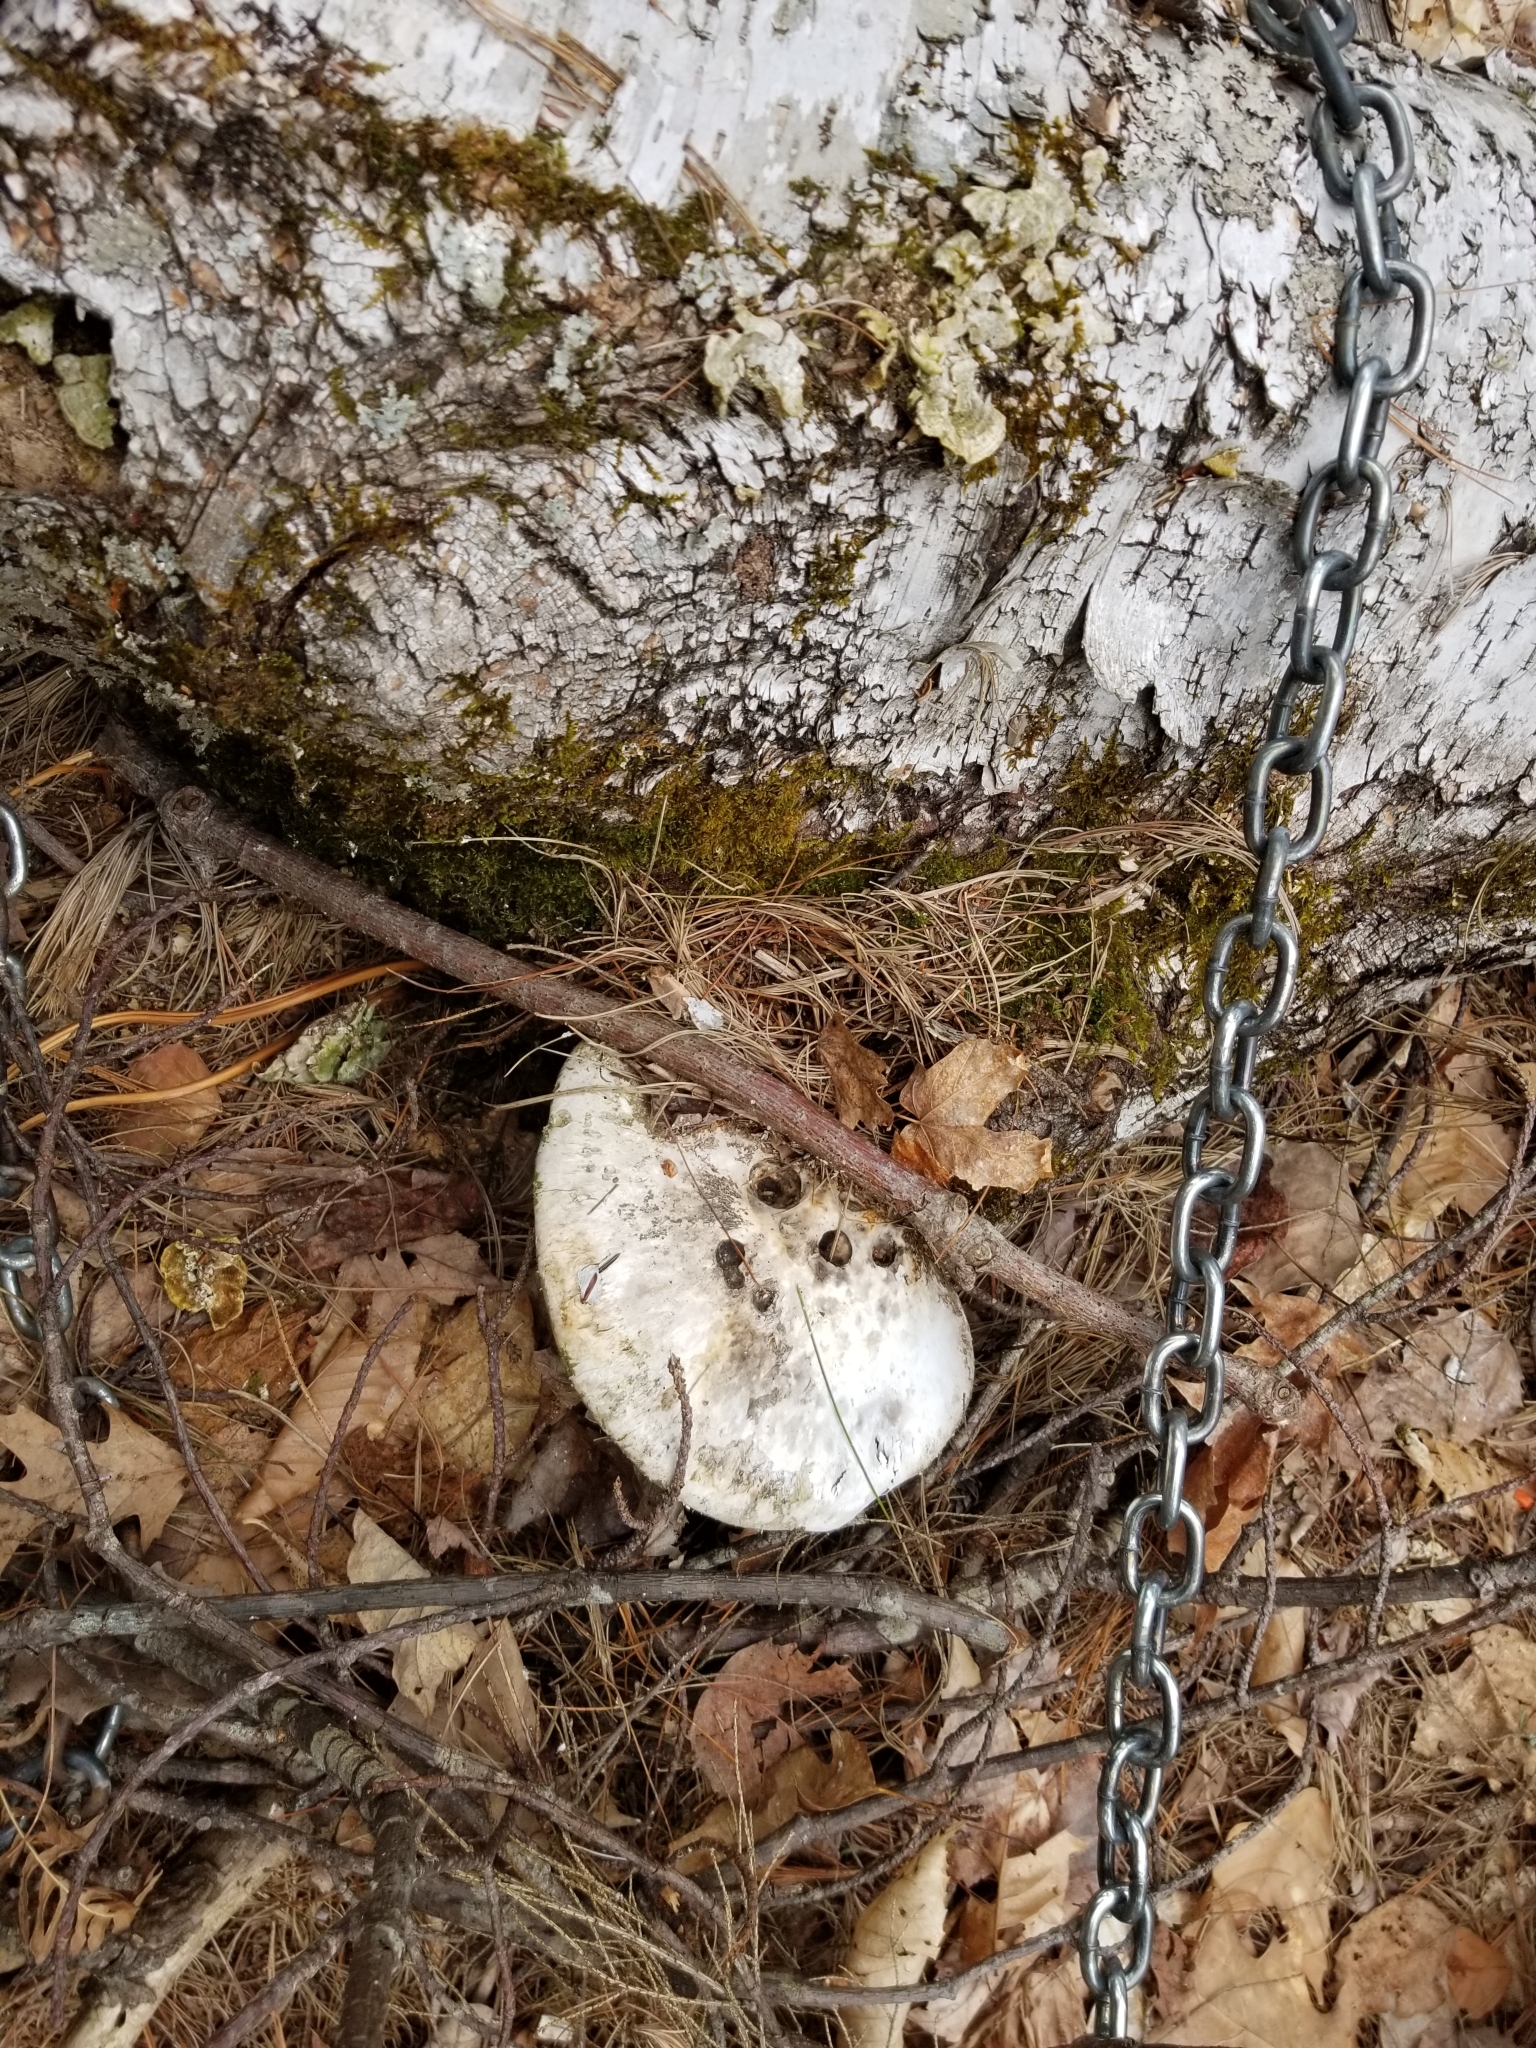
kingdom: Fungi
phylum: Basidiomycota
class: Agaricomycetes
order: Polyporales
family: Fomitopsidaceae
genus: Fomitopsis
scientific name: Fomitopsis betulina
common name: Birch polypore
